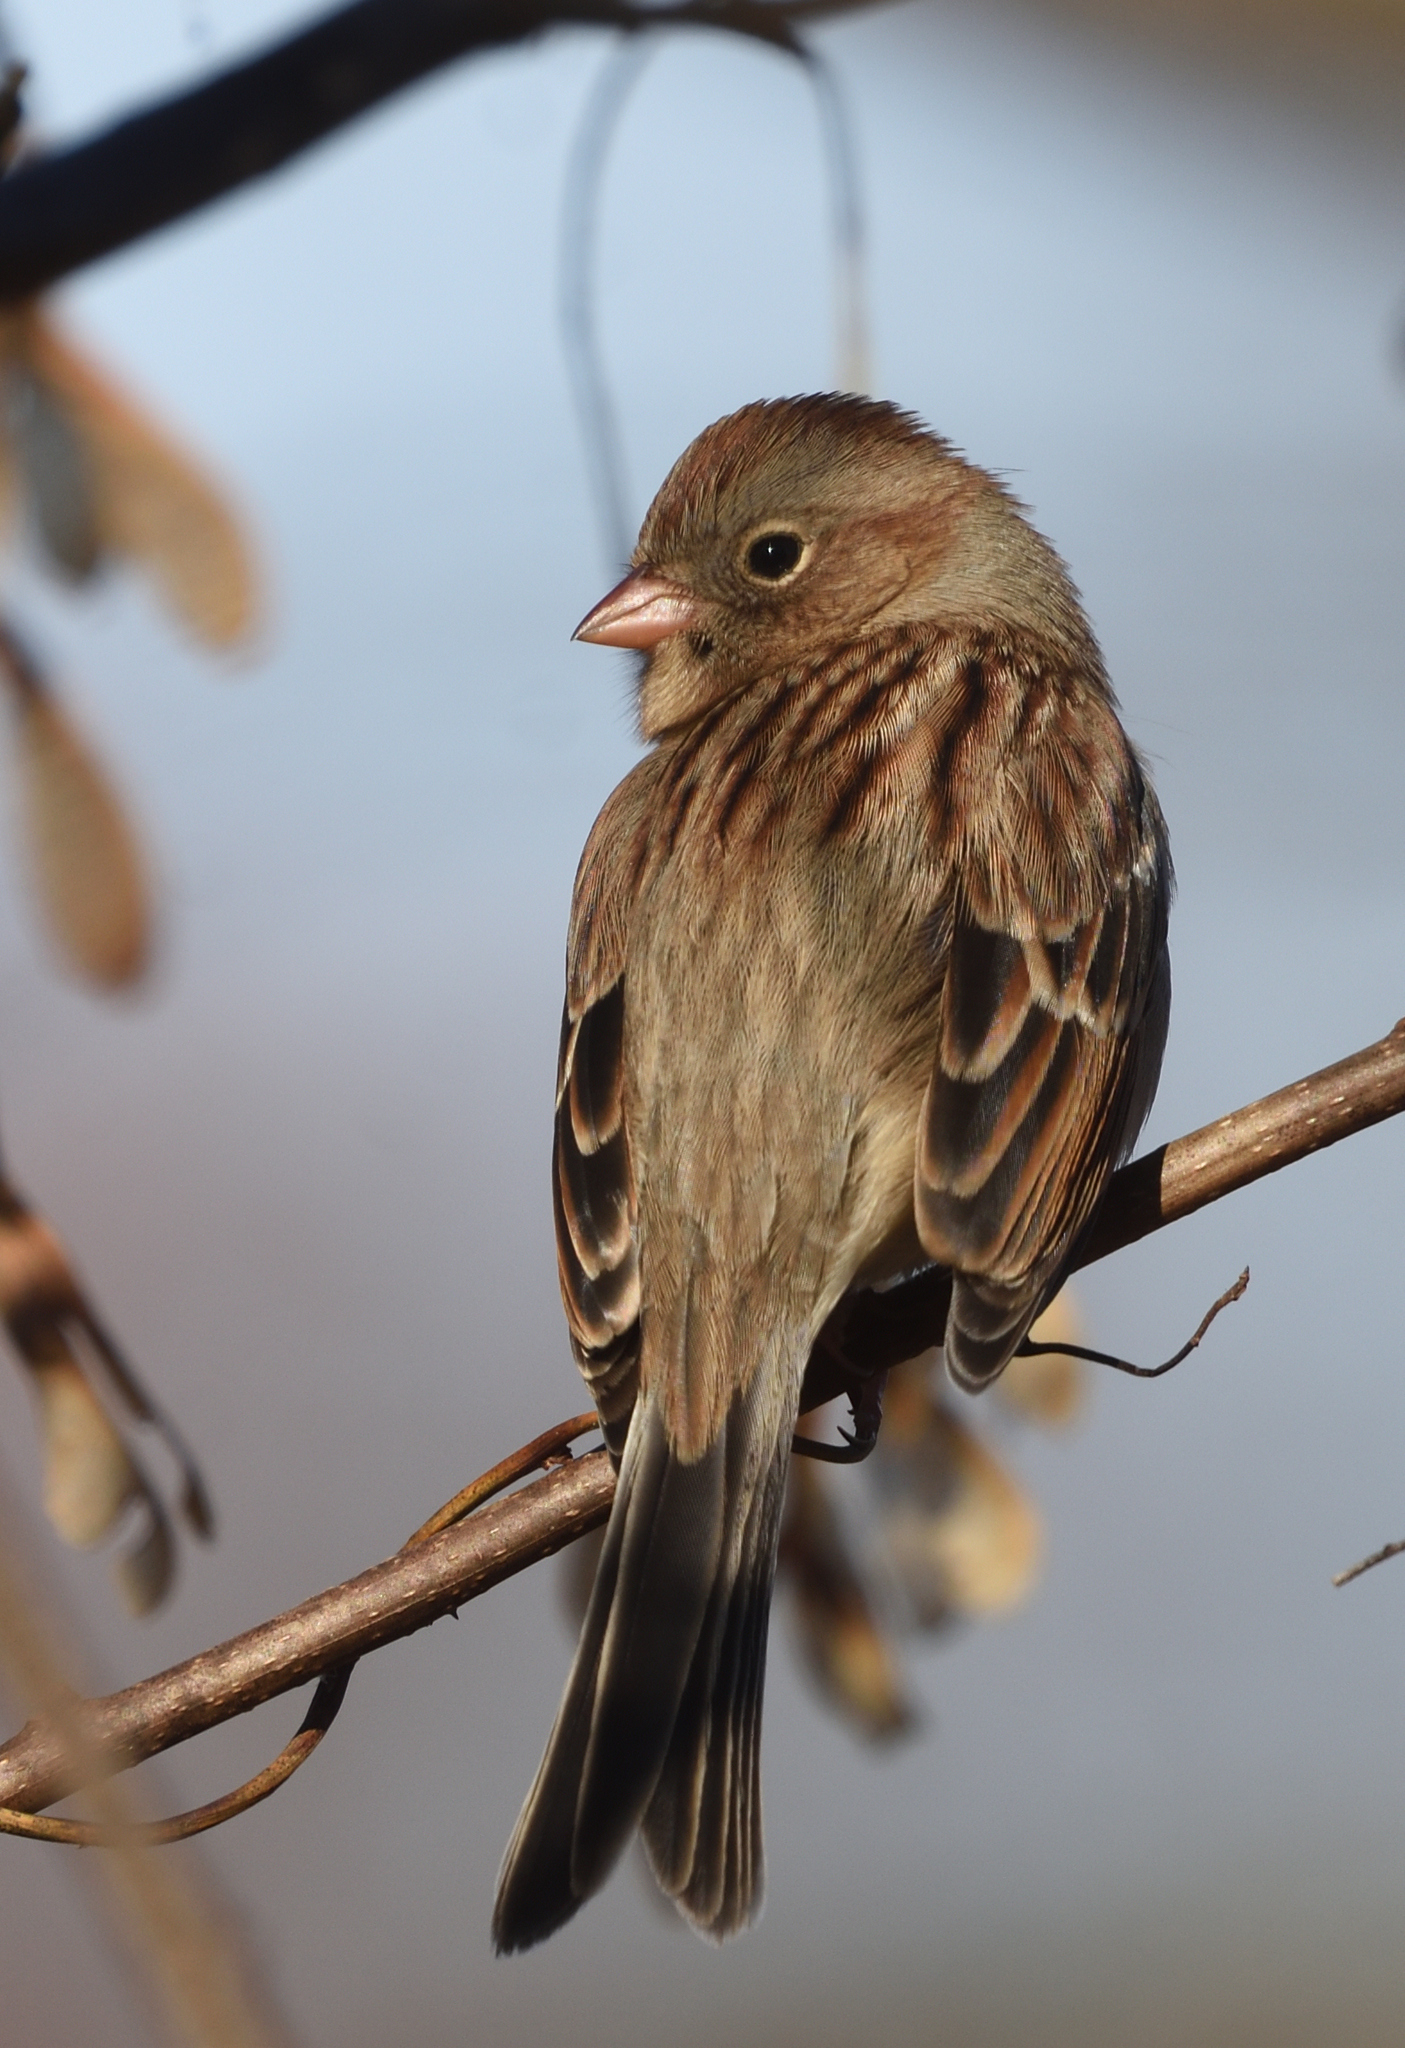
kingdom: Animalia
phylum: Chordata
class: Aves
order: Passeriformes
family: Passerellidae
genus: Spizella
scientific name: Spizella pusilla
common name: Field sparrow
